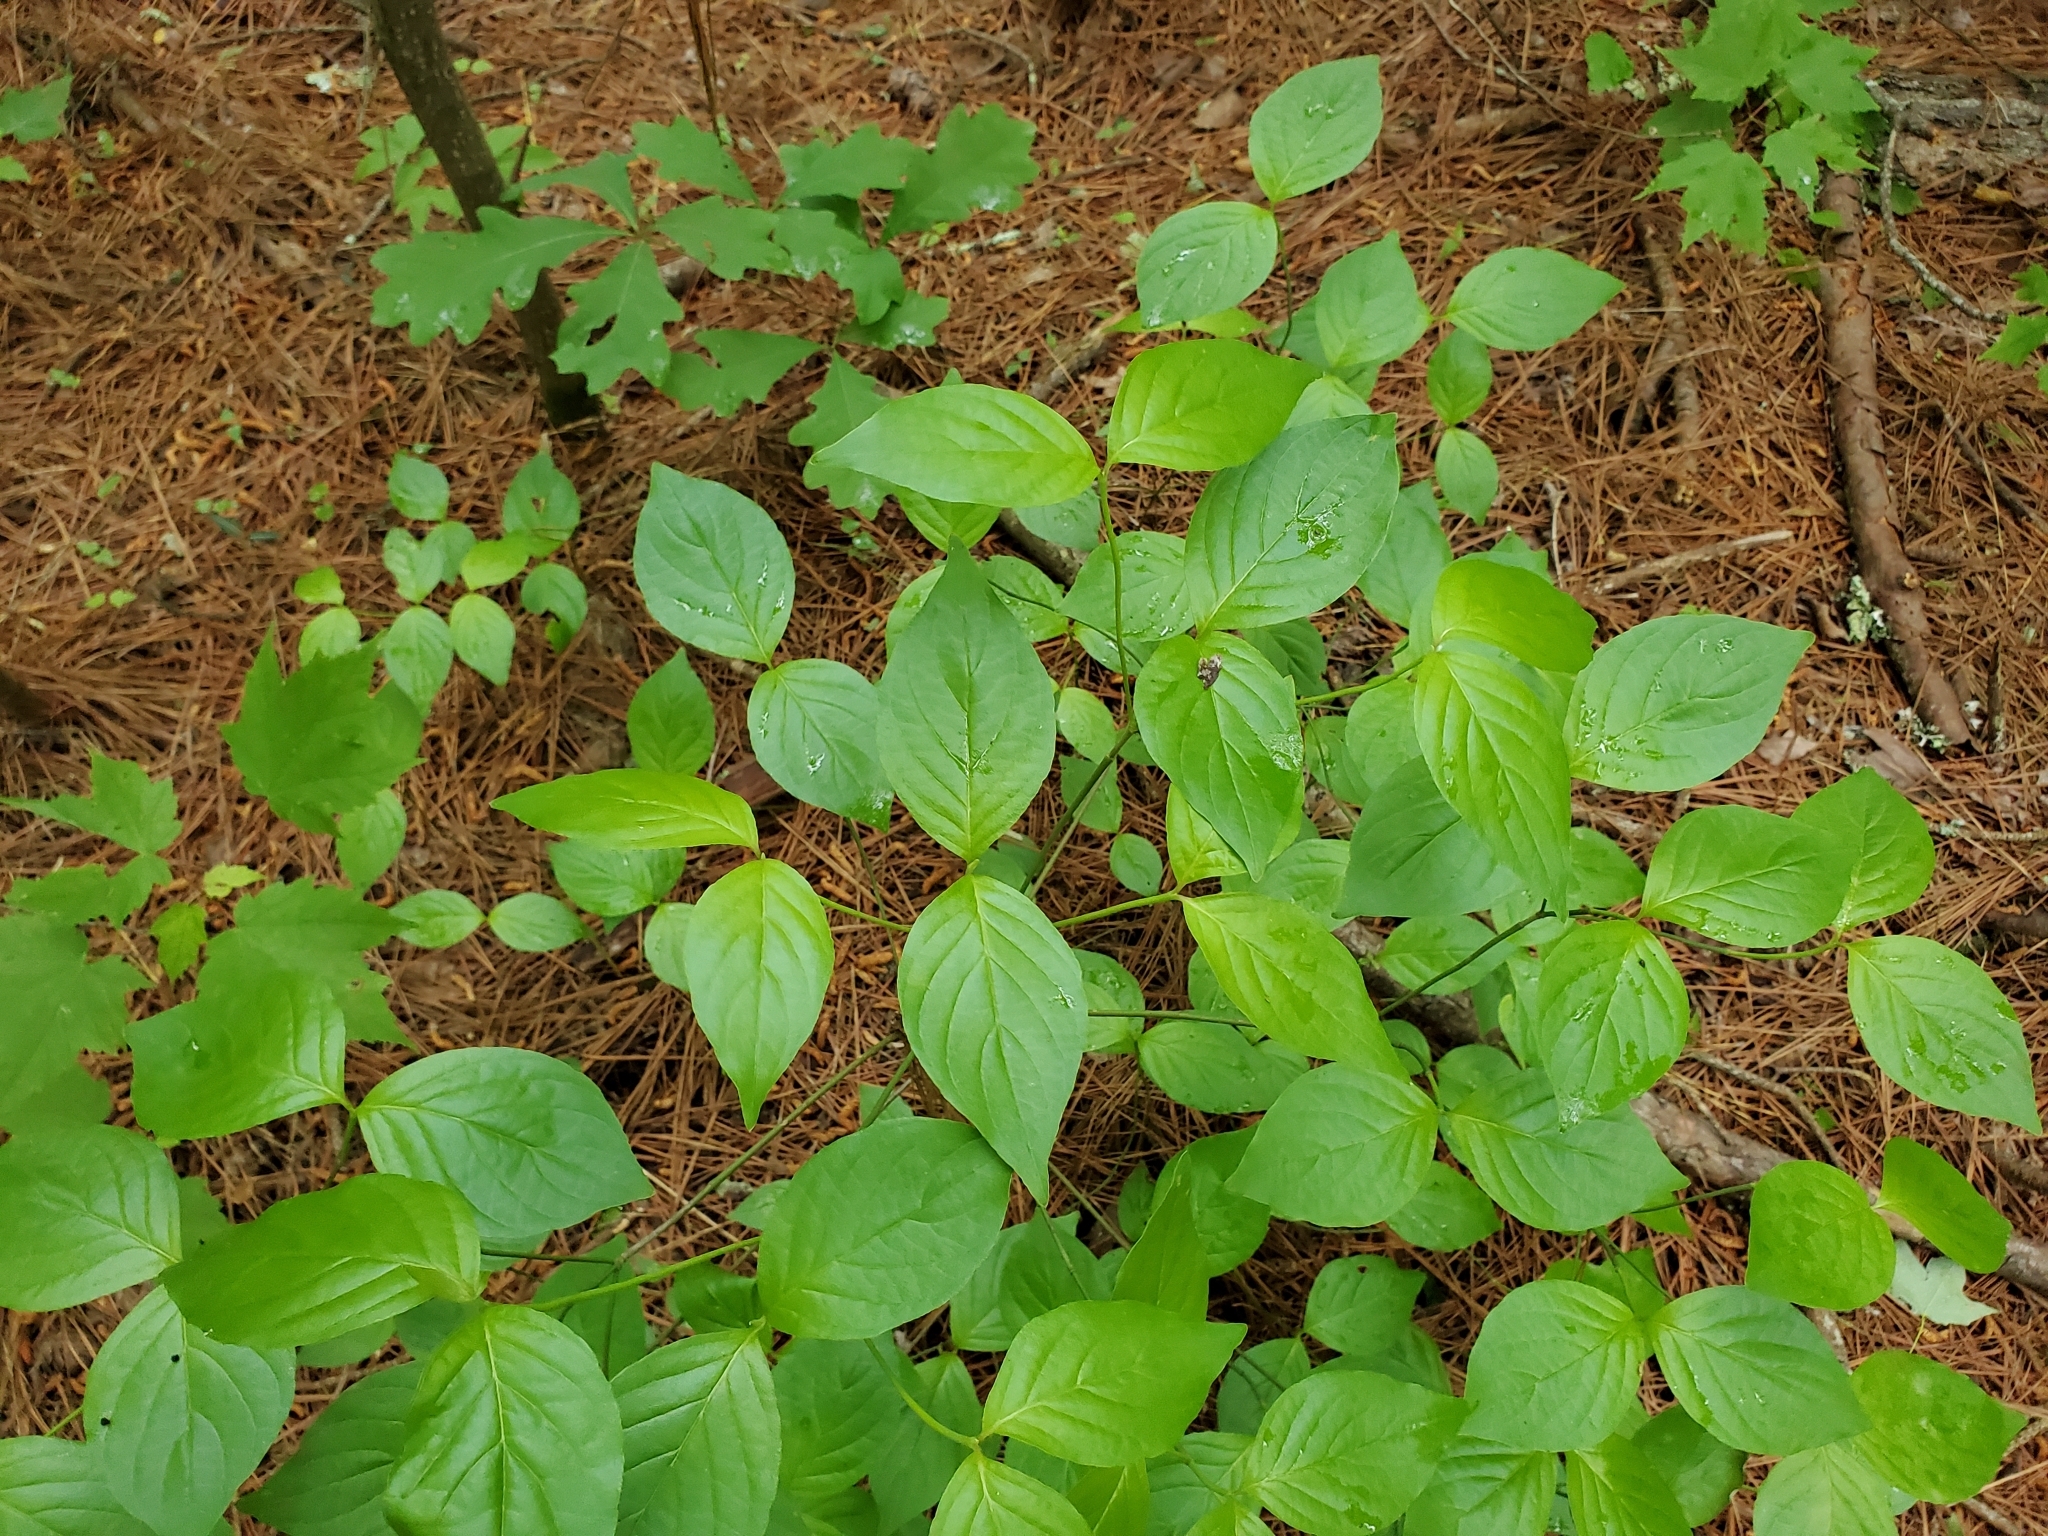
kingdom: Plantae
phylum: Tracheophyta
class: Magnoliopsida
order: Cornales
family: Cornaceae
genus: Cornus
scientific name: Cornus florida
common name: Flowering dogwood
